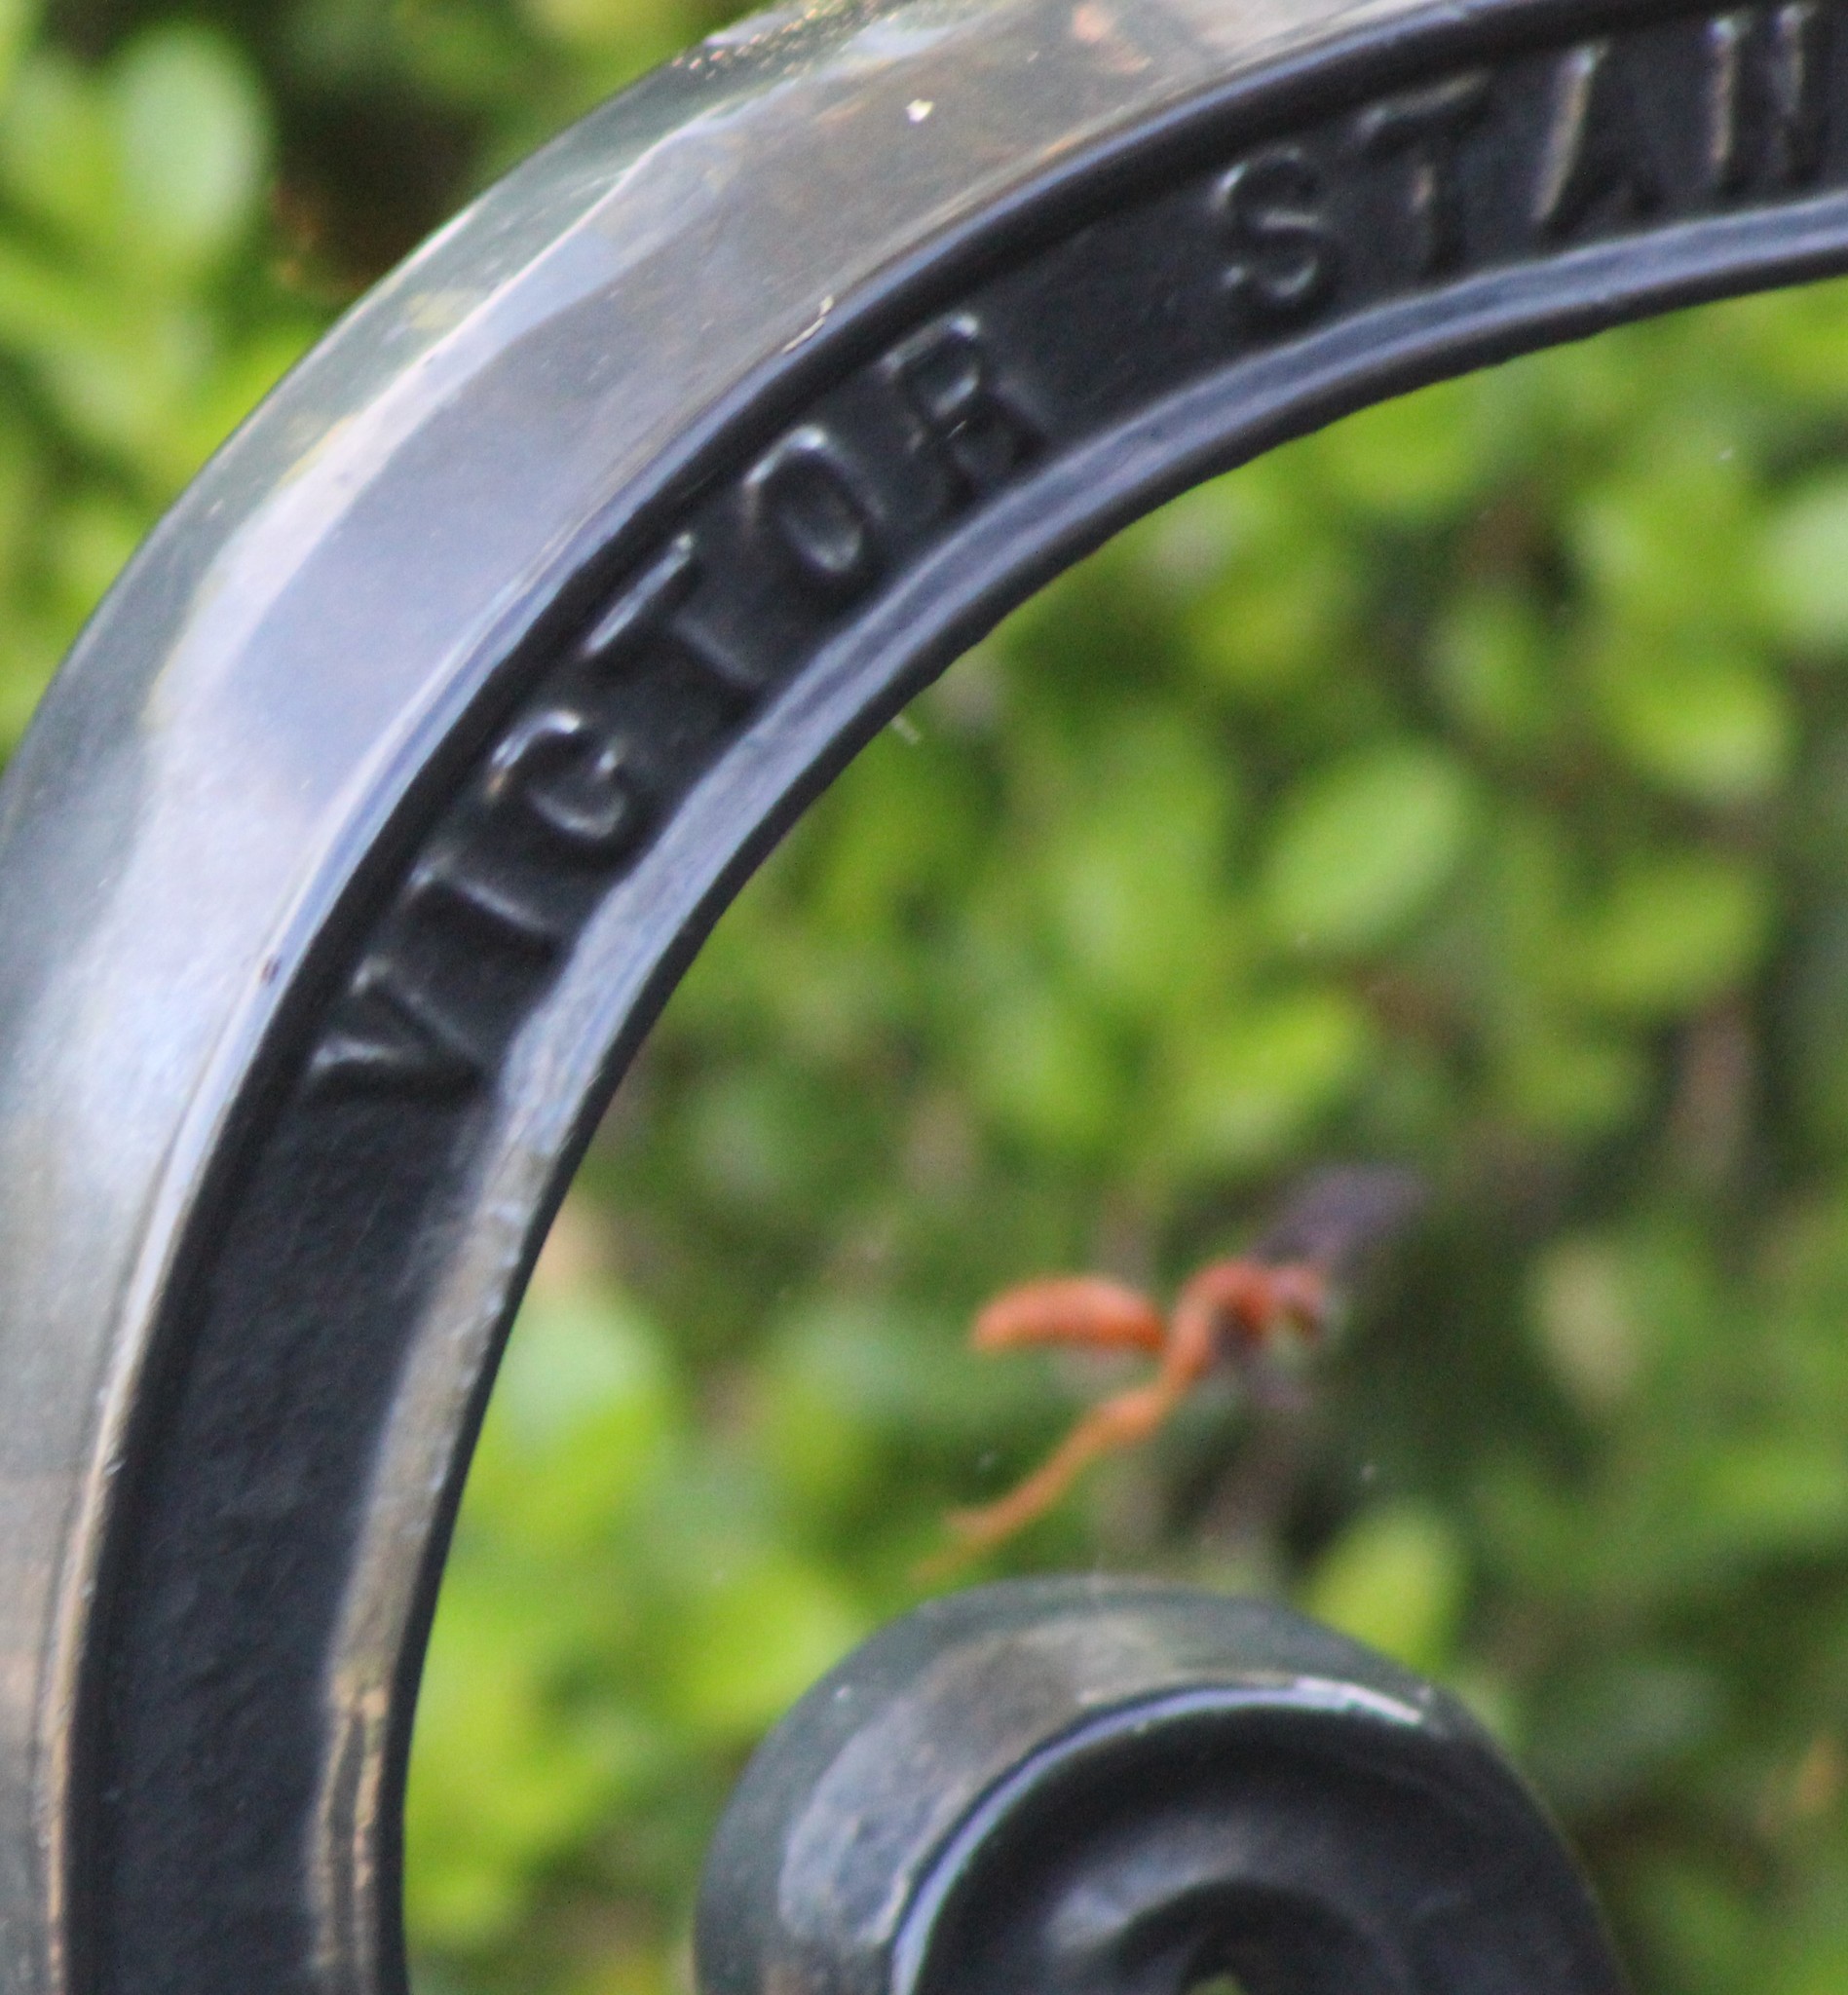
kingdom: Animalia
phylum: Arthropoda
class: Insecta
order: Hymenoptera
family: Vespidae
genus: Fuscopolistes
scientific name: Fuscopolistes
